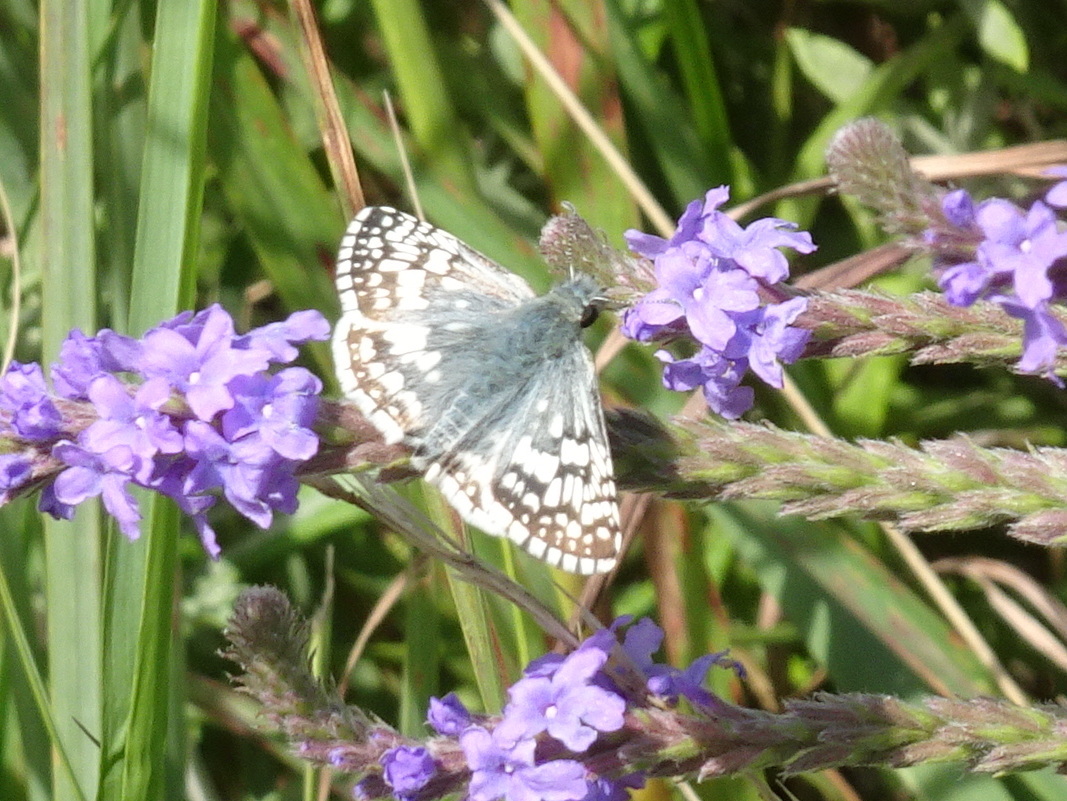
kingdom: Animalia
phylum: Arthropoda
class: Insecta
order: Lepidoptera
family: Hesperiidae
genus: Burnsius
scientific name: Burnsius communis
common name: Common checkered-skipper
